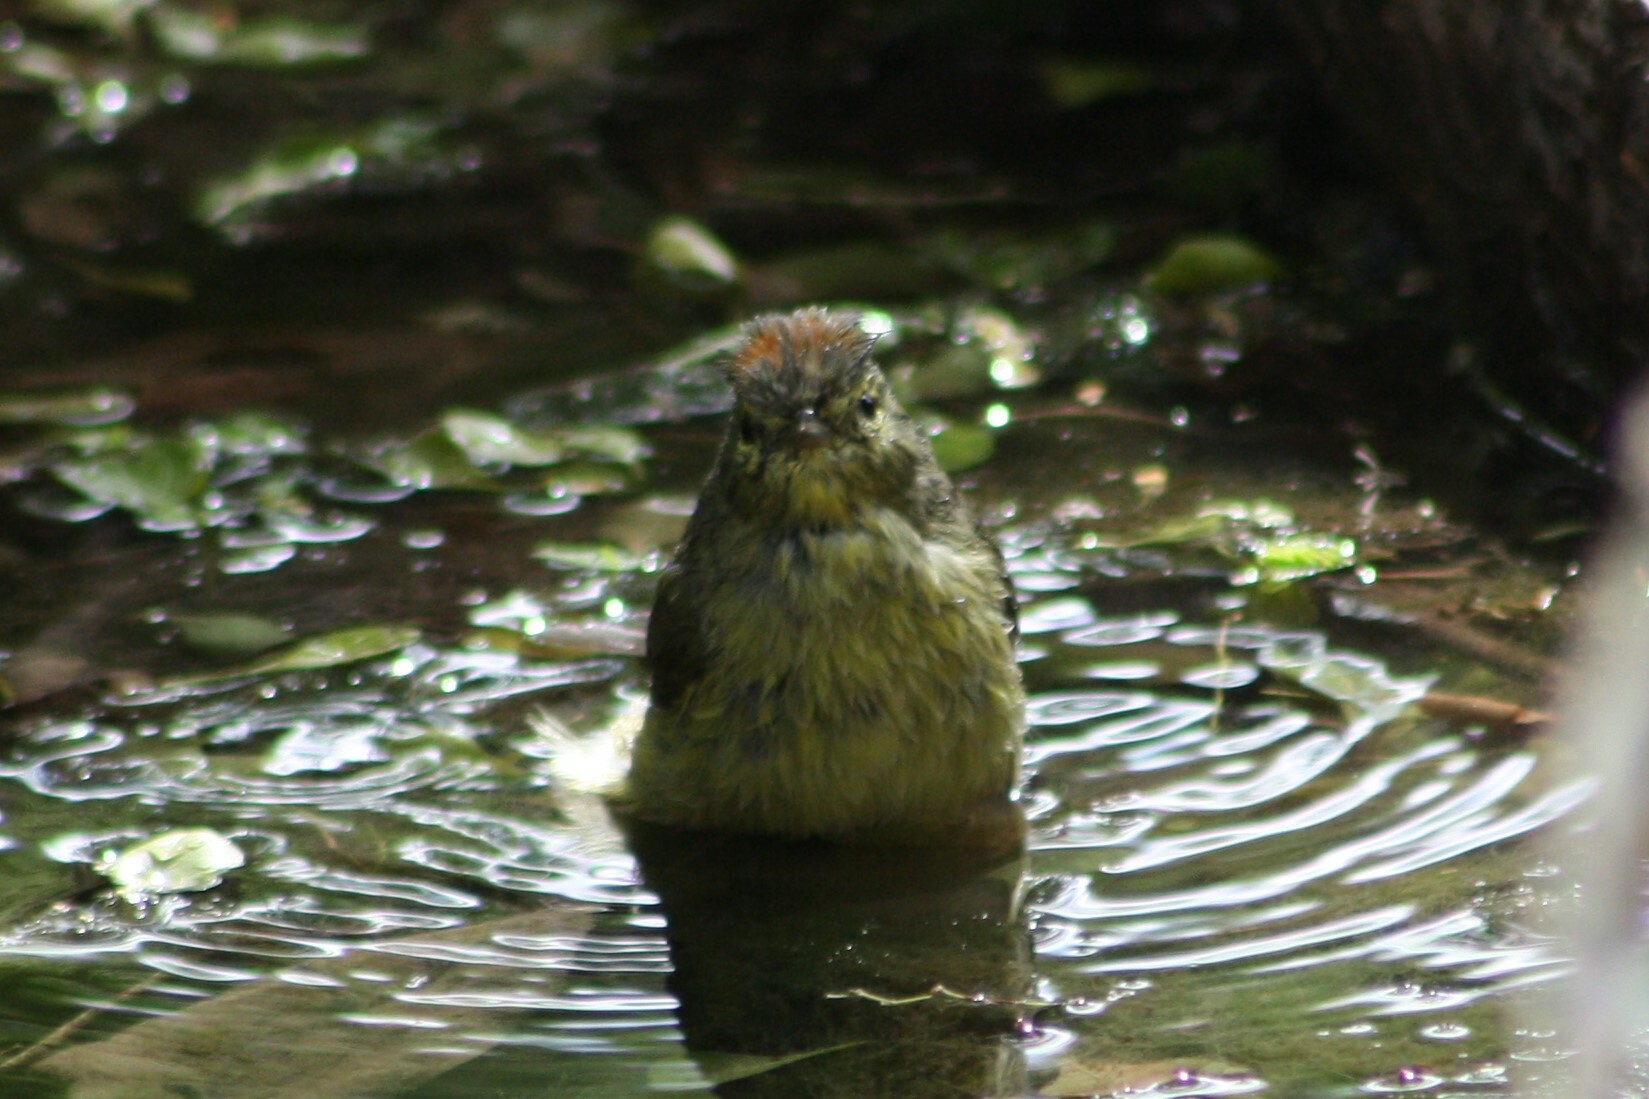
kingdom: Animalia
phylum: Chordata
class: Aves
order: Passeriformes
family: Parulidae
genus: Leiothlypis
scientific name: Leiothlypis celata
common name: Orange-crowned warbler
